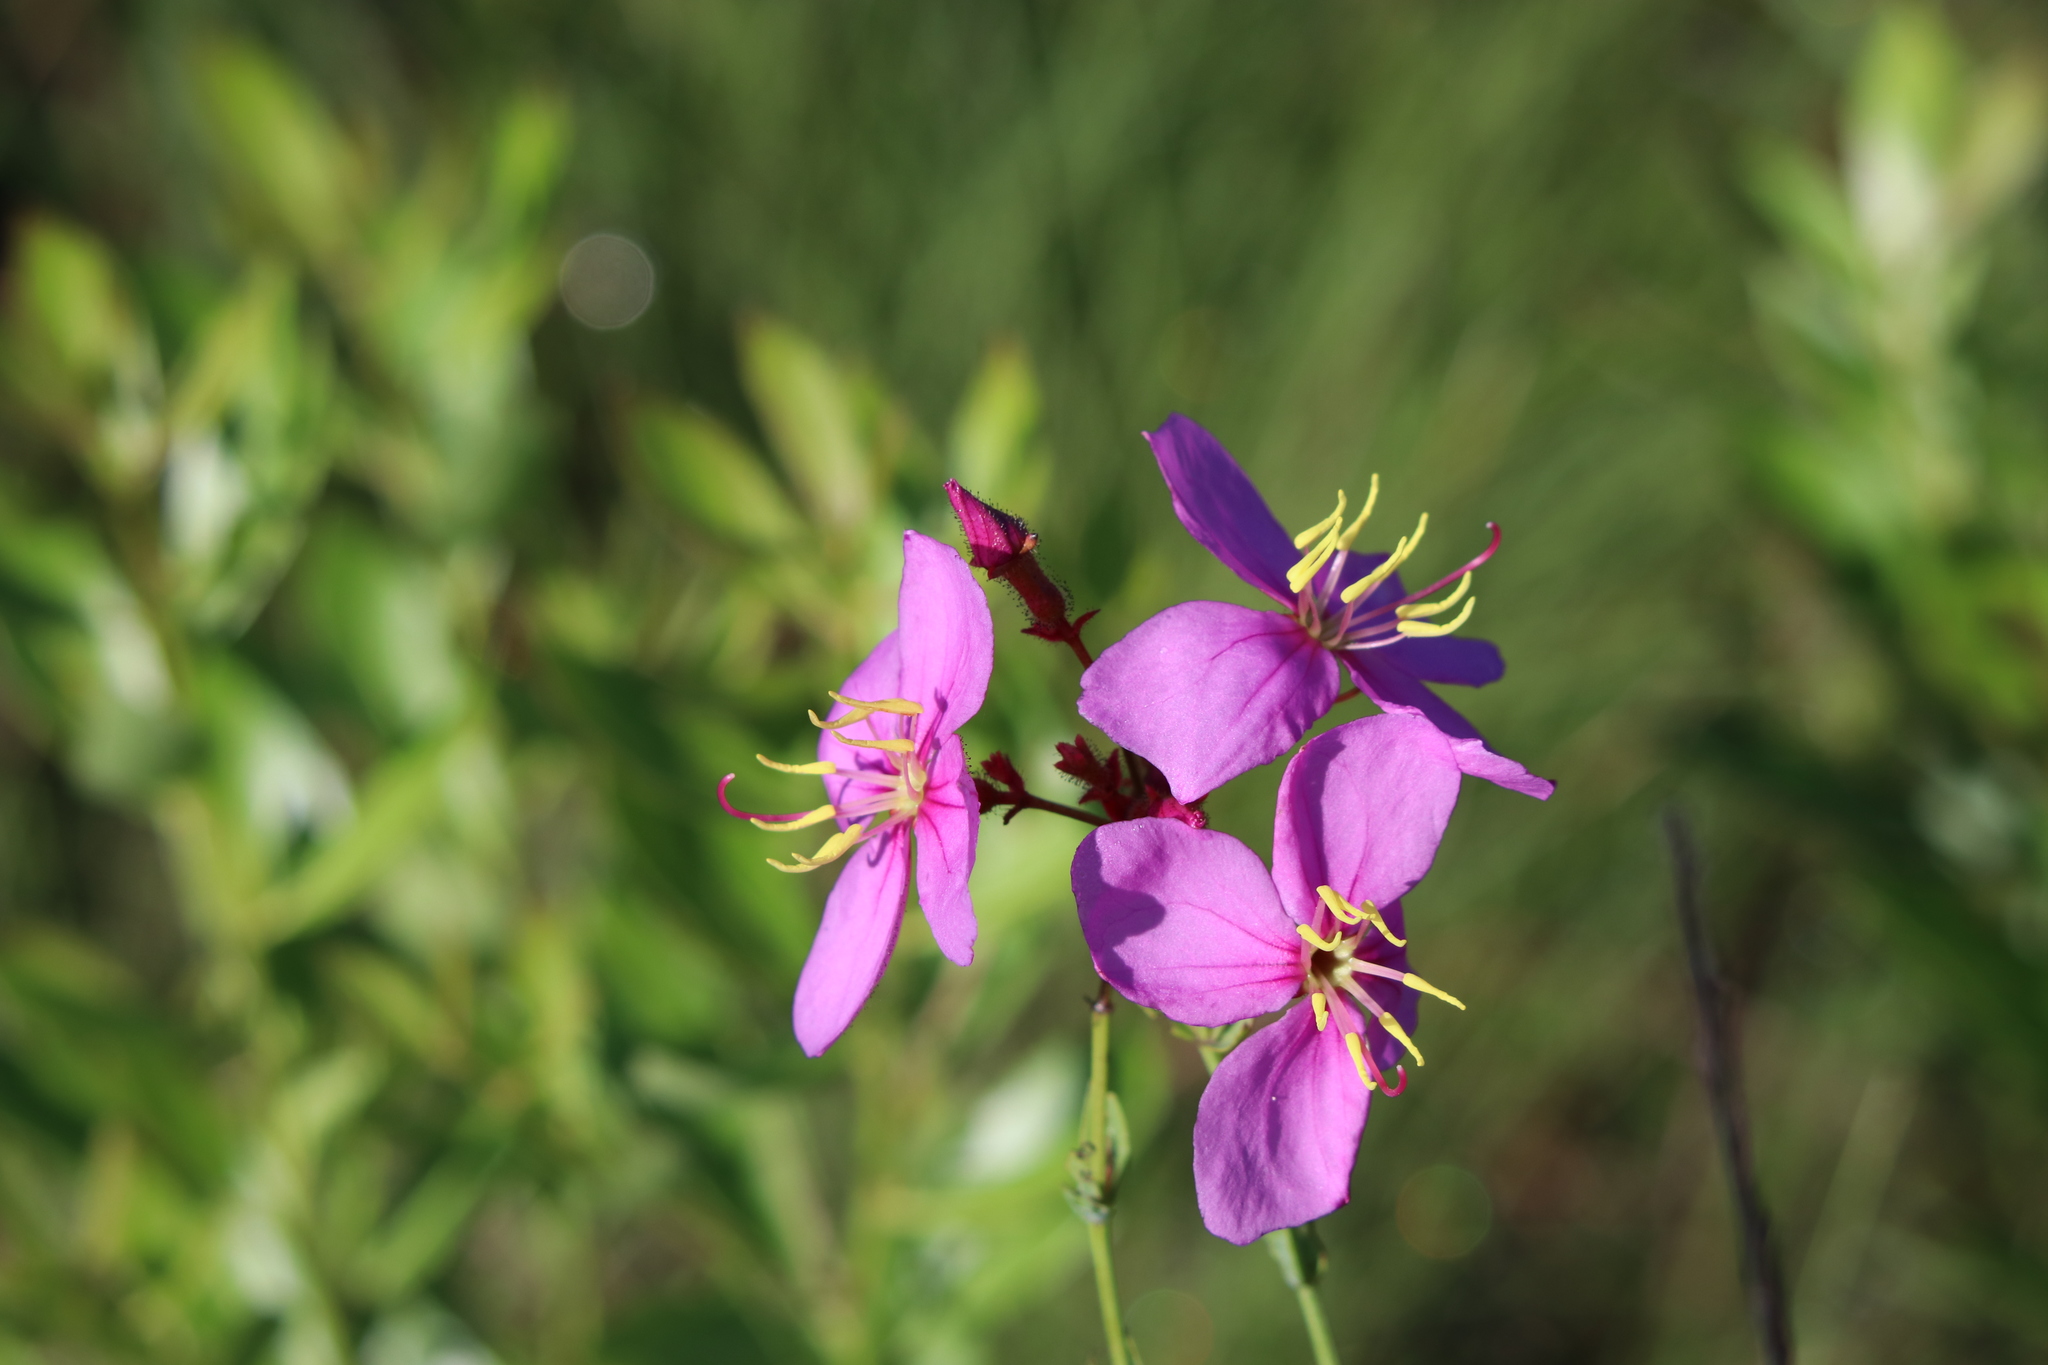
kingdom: Plantae
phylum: Tracheophyta
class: Magnoliopsida
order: Myrtales
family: Melastomataceae
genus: Rhexia
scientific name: Rhexia alifanus
